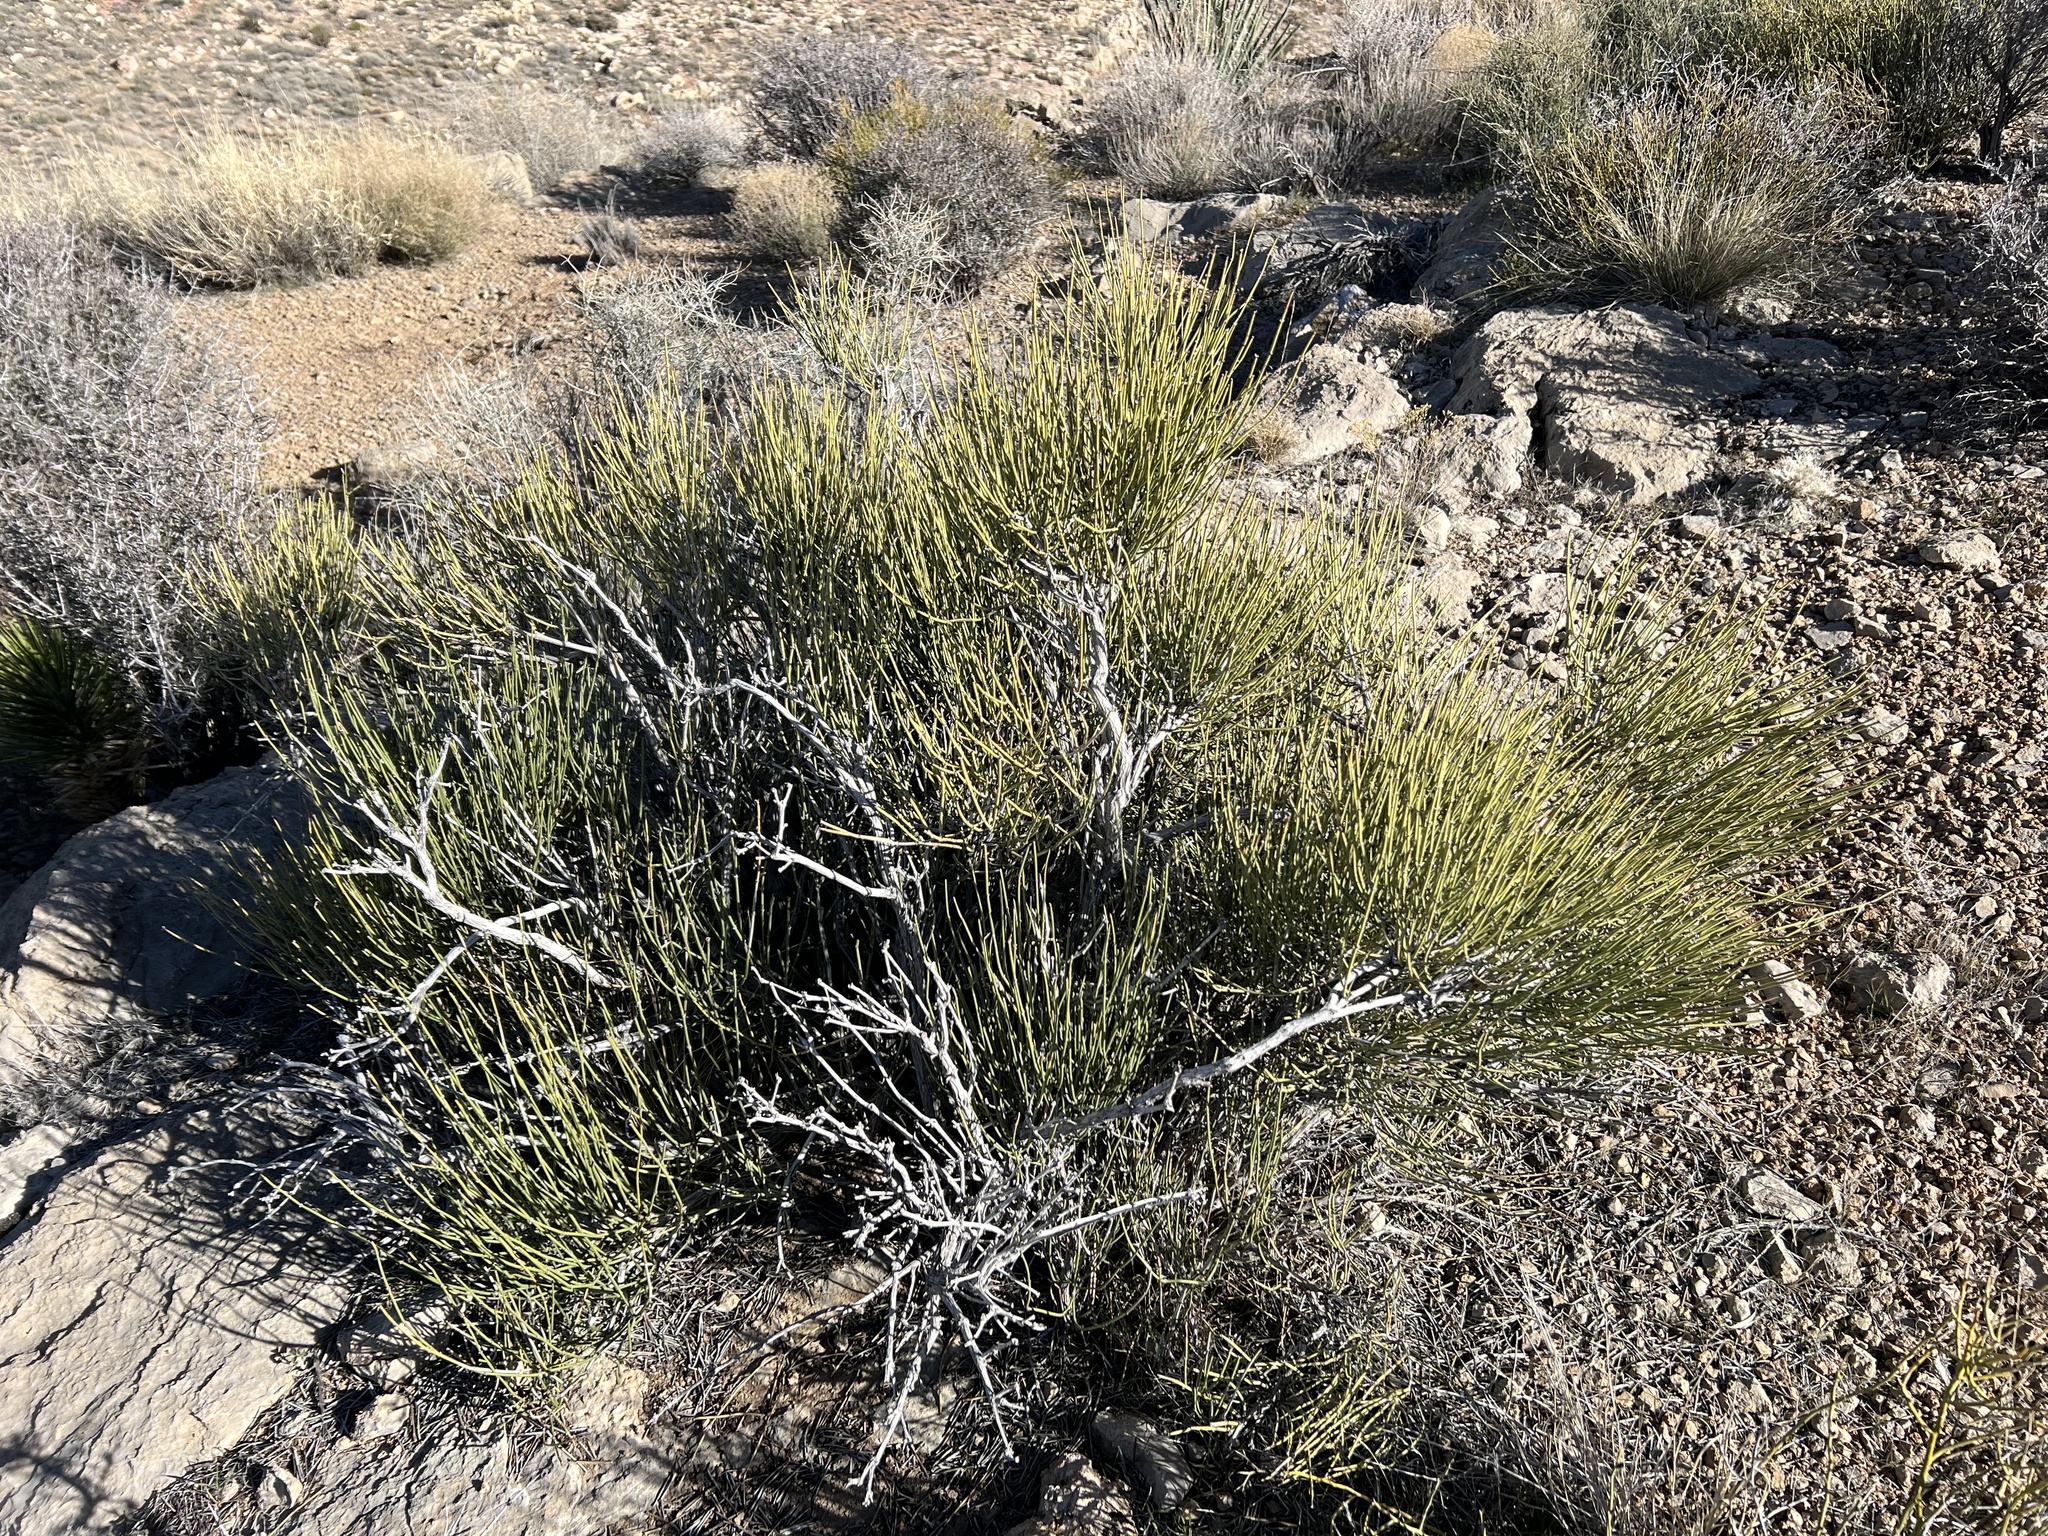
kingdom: Plantae
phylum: Tracheophyta
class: Gnetopsida
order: Ephedrales
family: Ephedraceae
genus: Ephedra
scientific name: Ephedra viridis
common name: Green ephedra
